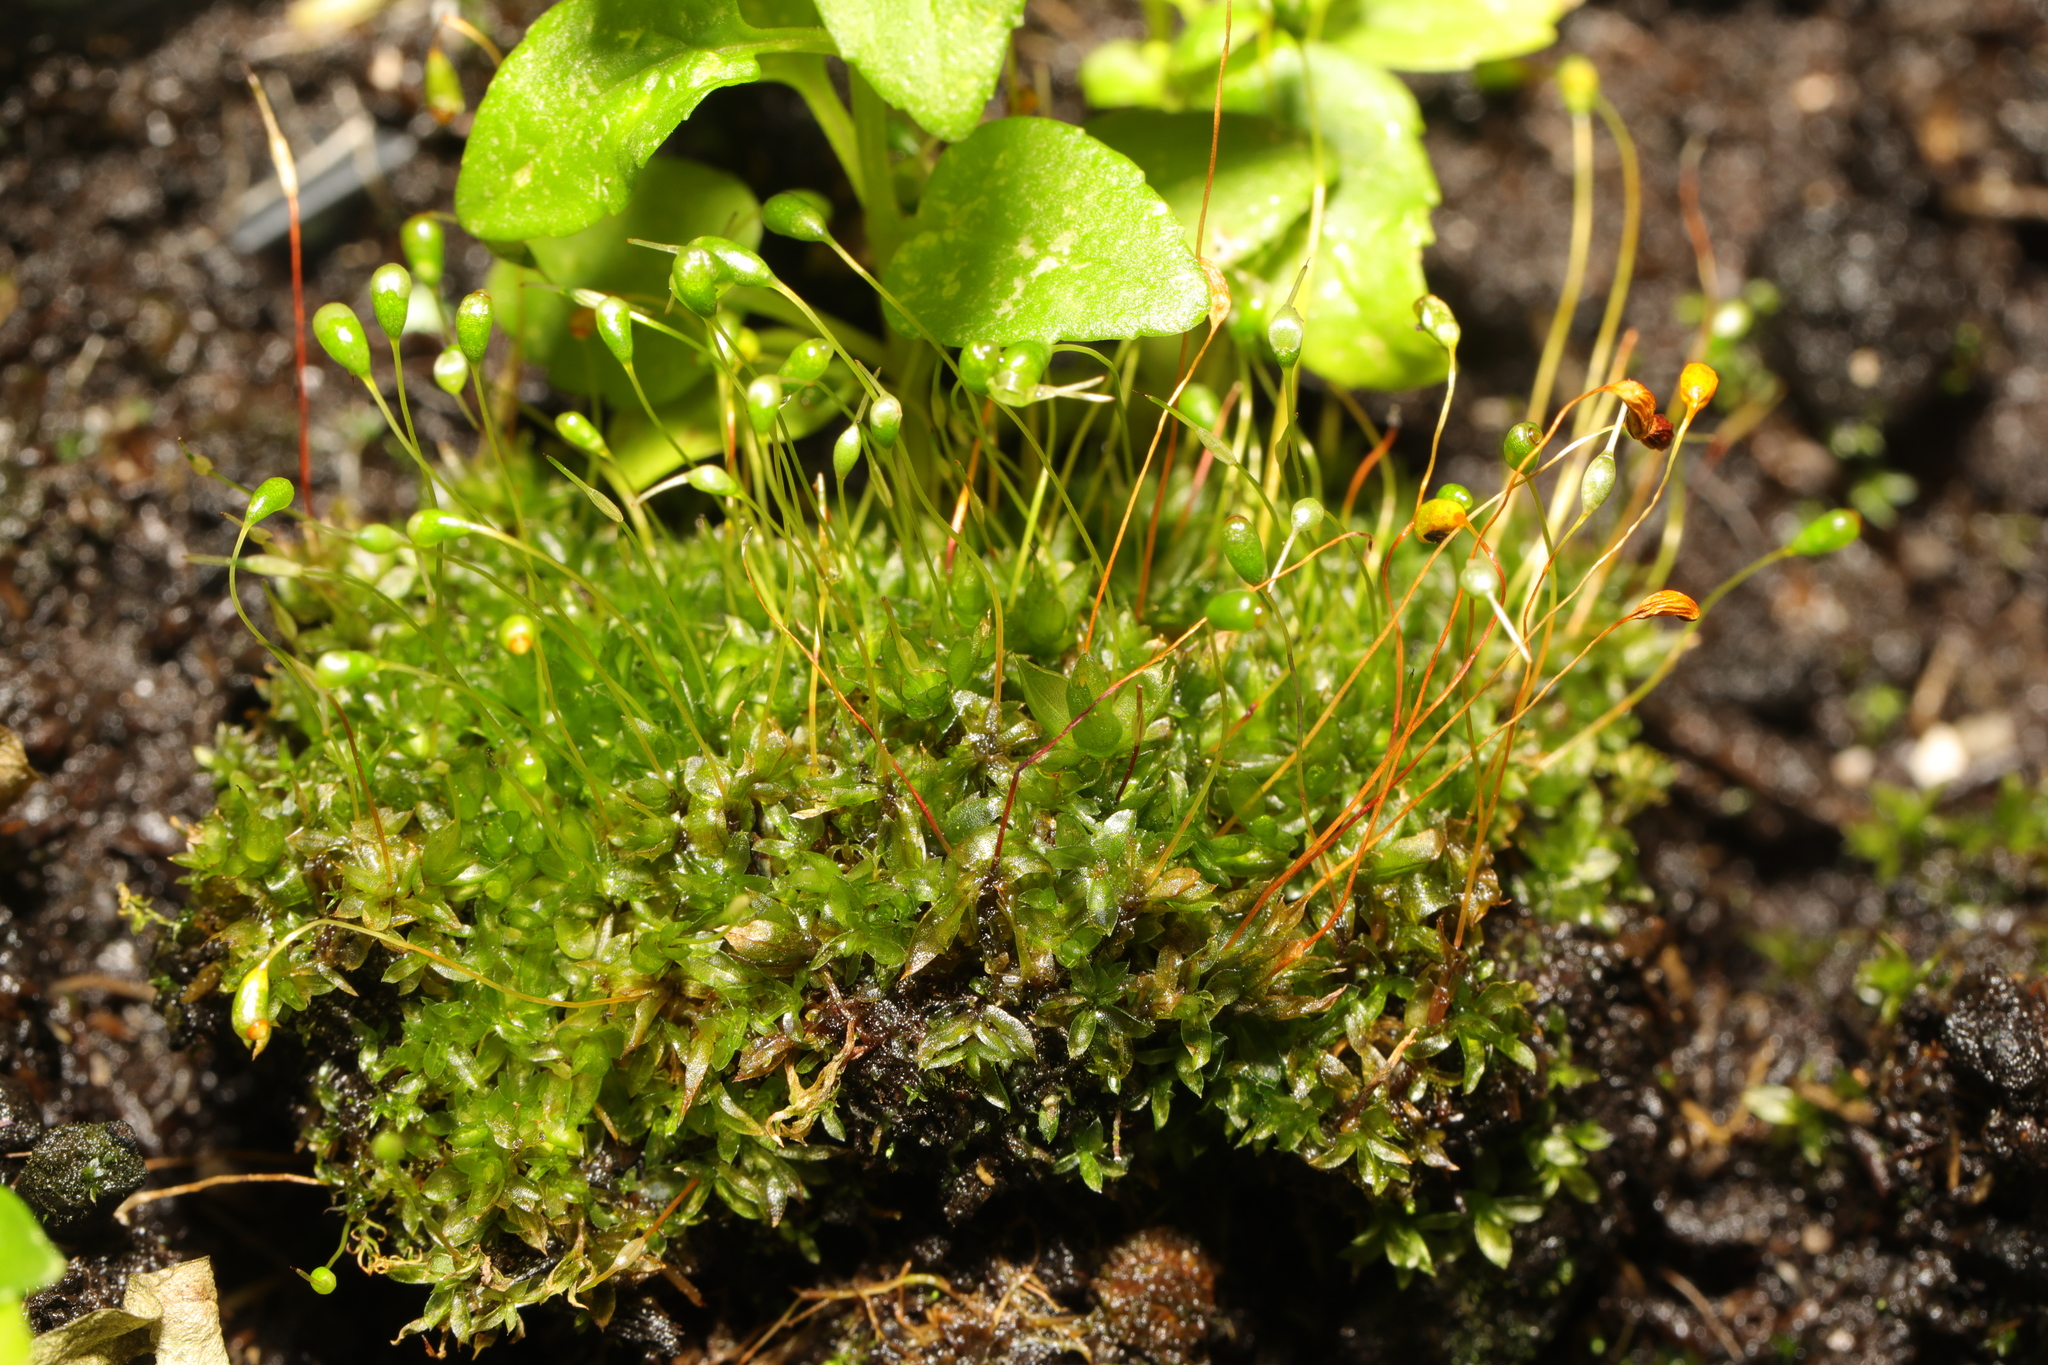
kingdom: Plantae
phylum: Bryophyta
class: Bryopsida
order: Funariales
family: Funariaceae
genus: Funaria
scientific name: Funaria hygrometrica
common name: Common cord moss
